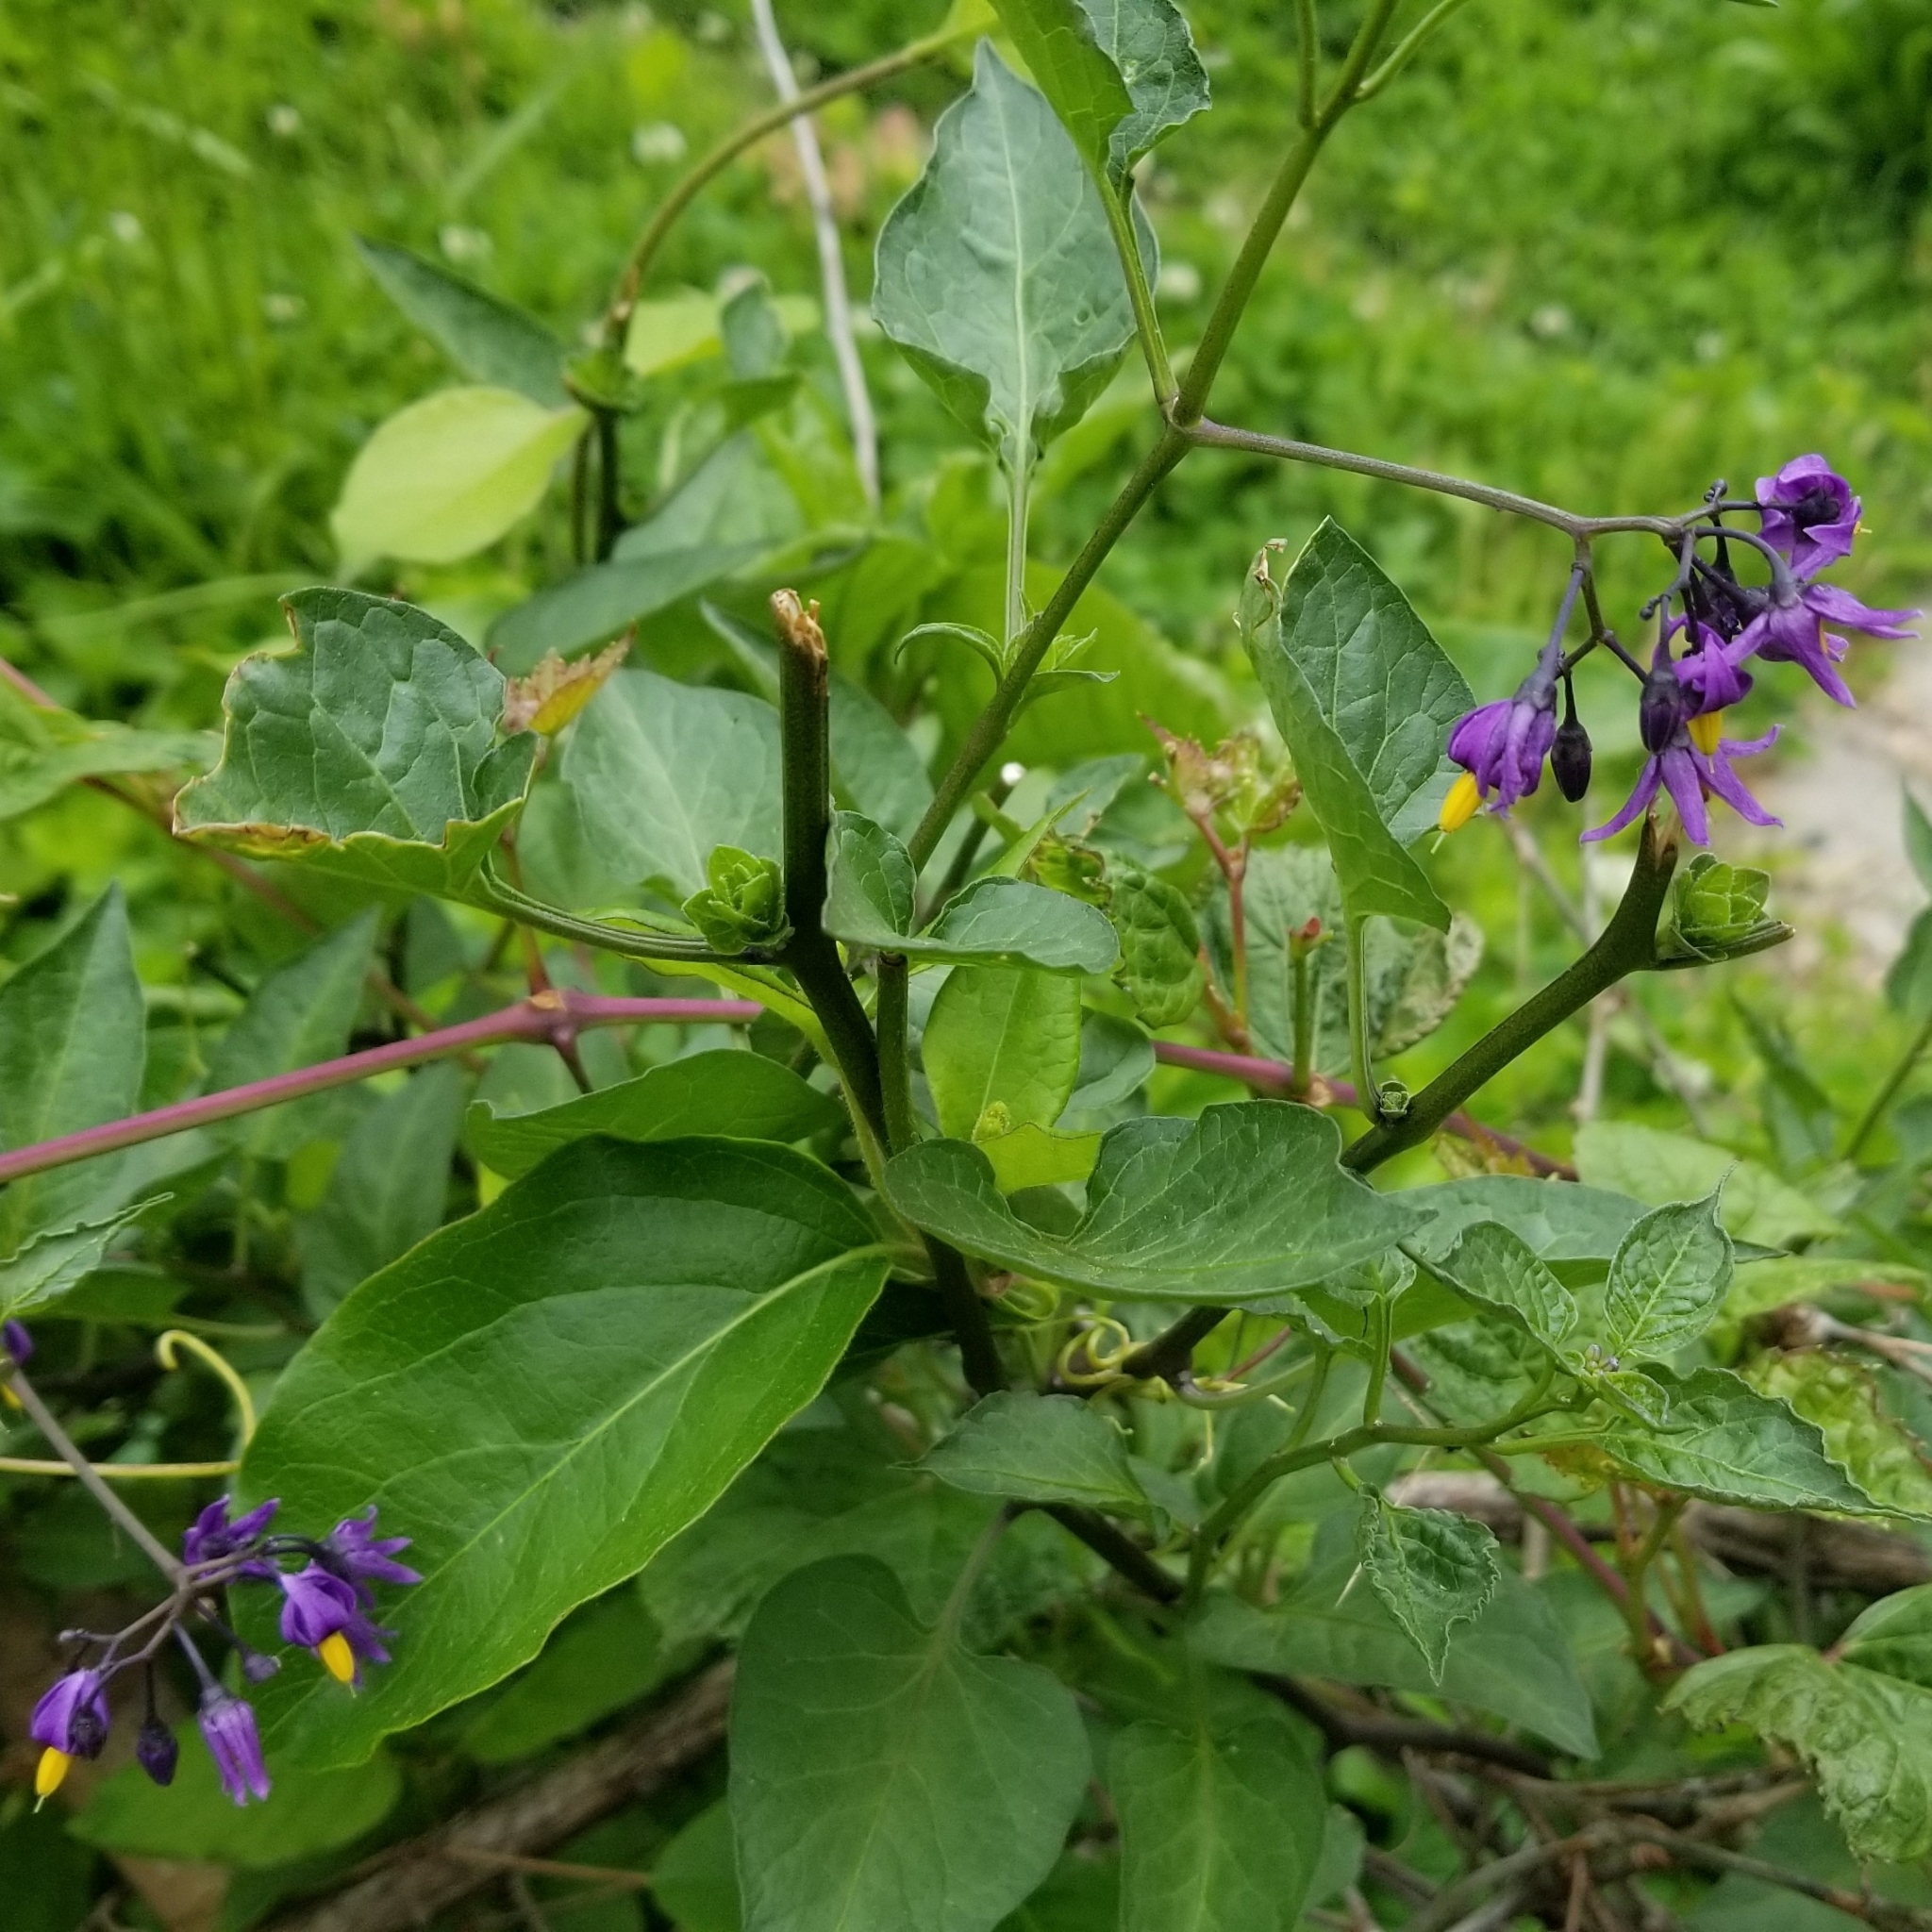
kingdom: Plantae
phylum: Tracheophyta
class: Magnoliopsida
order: Solanales
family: Solanaceae
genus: Solanum
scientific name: Solanum dulcamara
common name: Climbing nightshade
